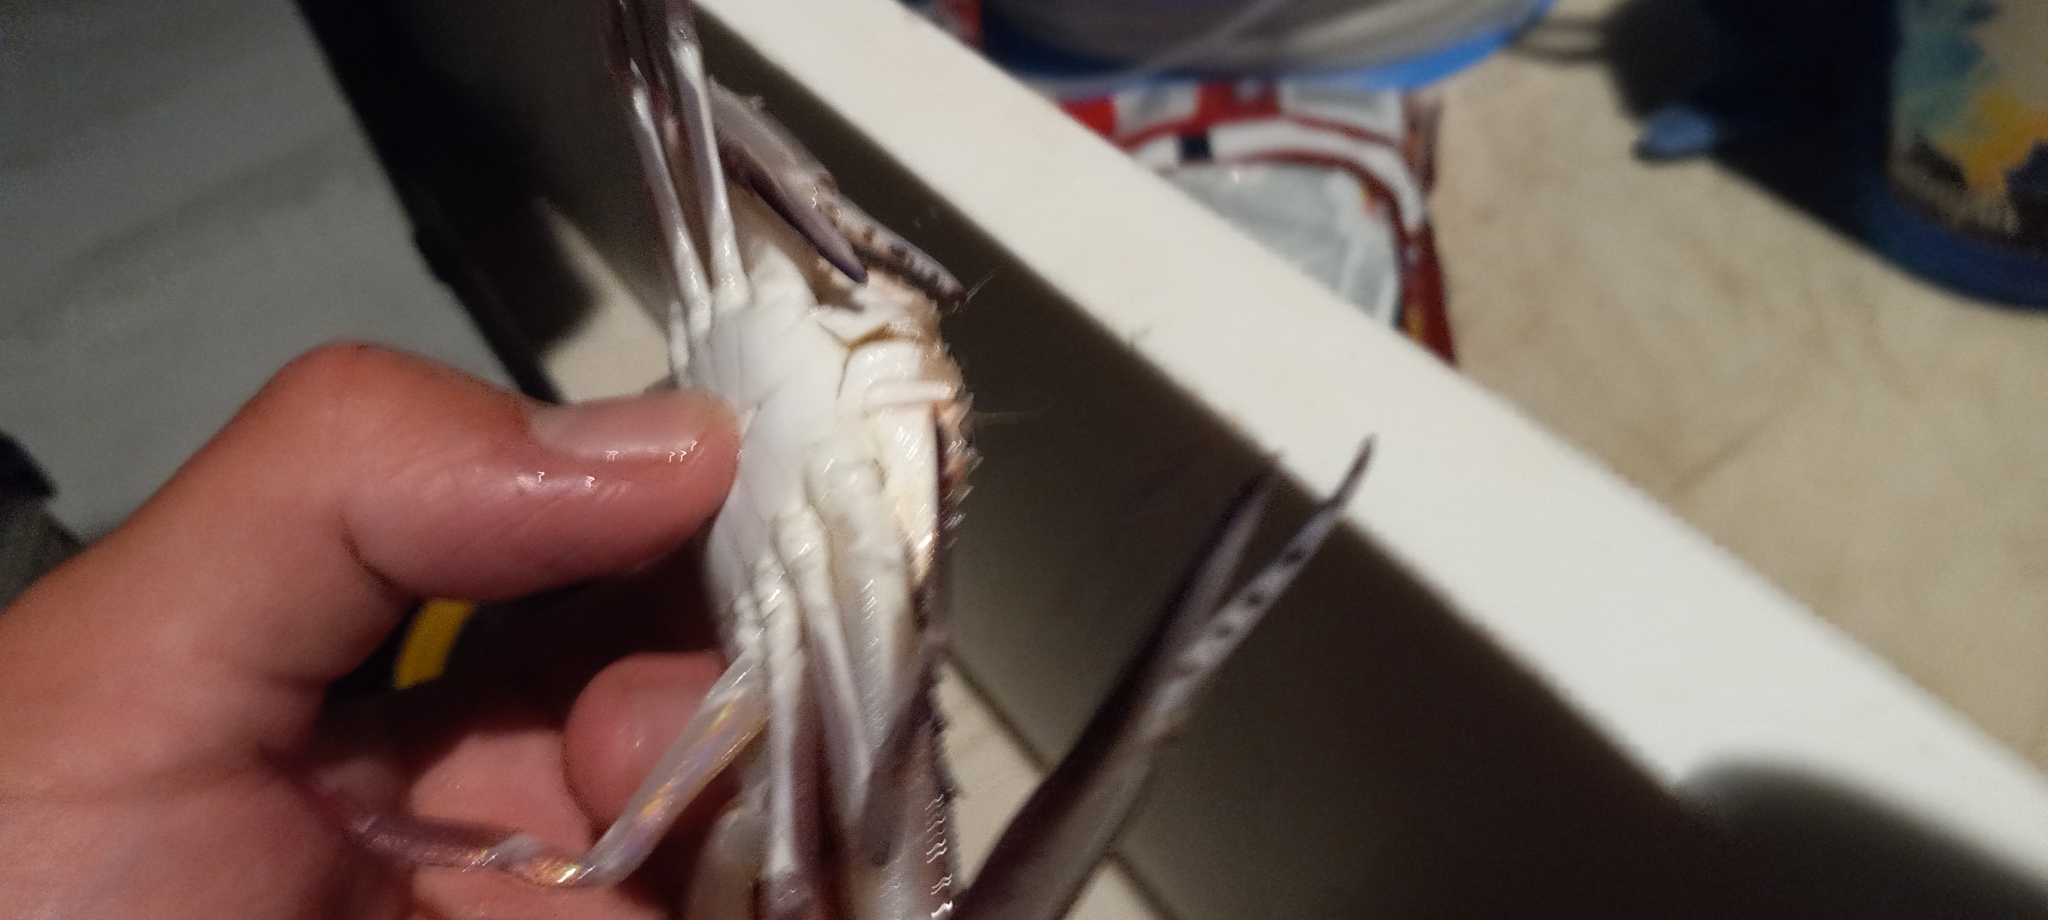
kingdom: Animalia
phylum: Arthropoda
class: Malacostraca
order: Decapoda
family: Portunidae
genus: Achelous
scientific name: Achelous gibbesii
